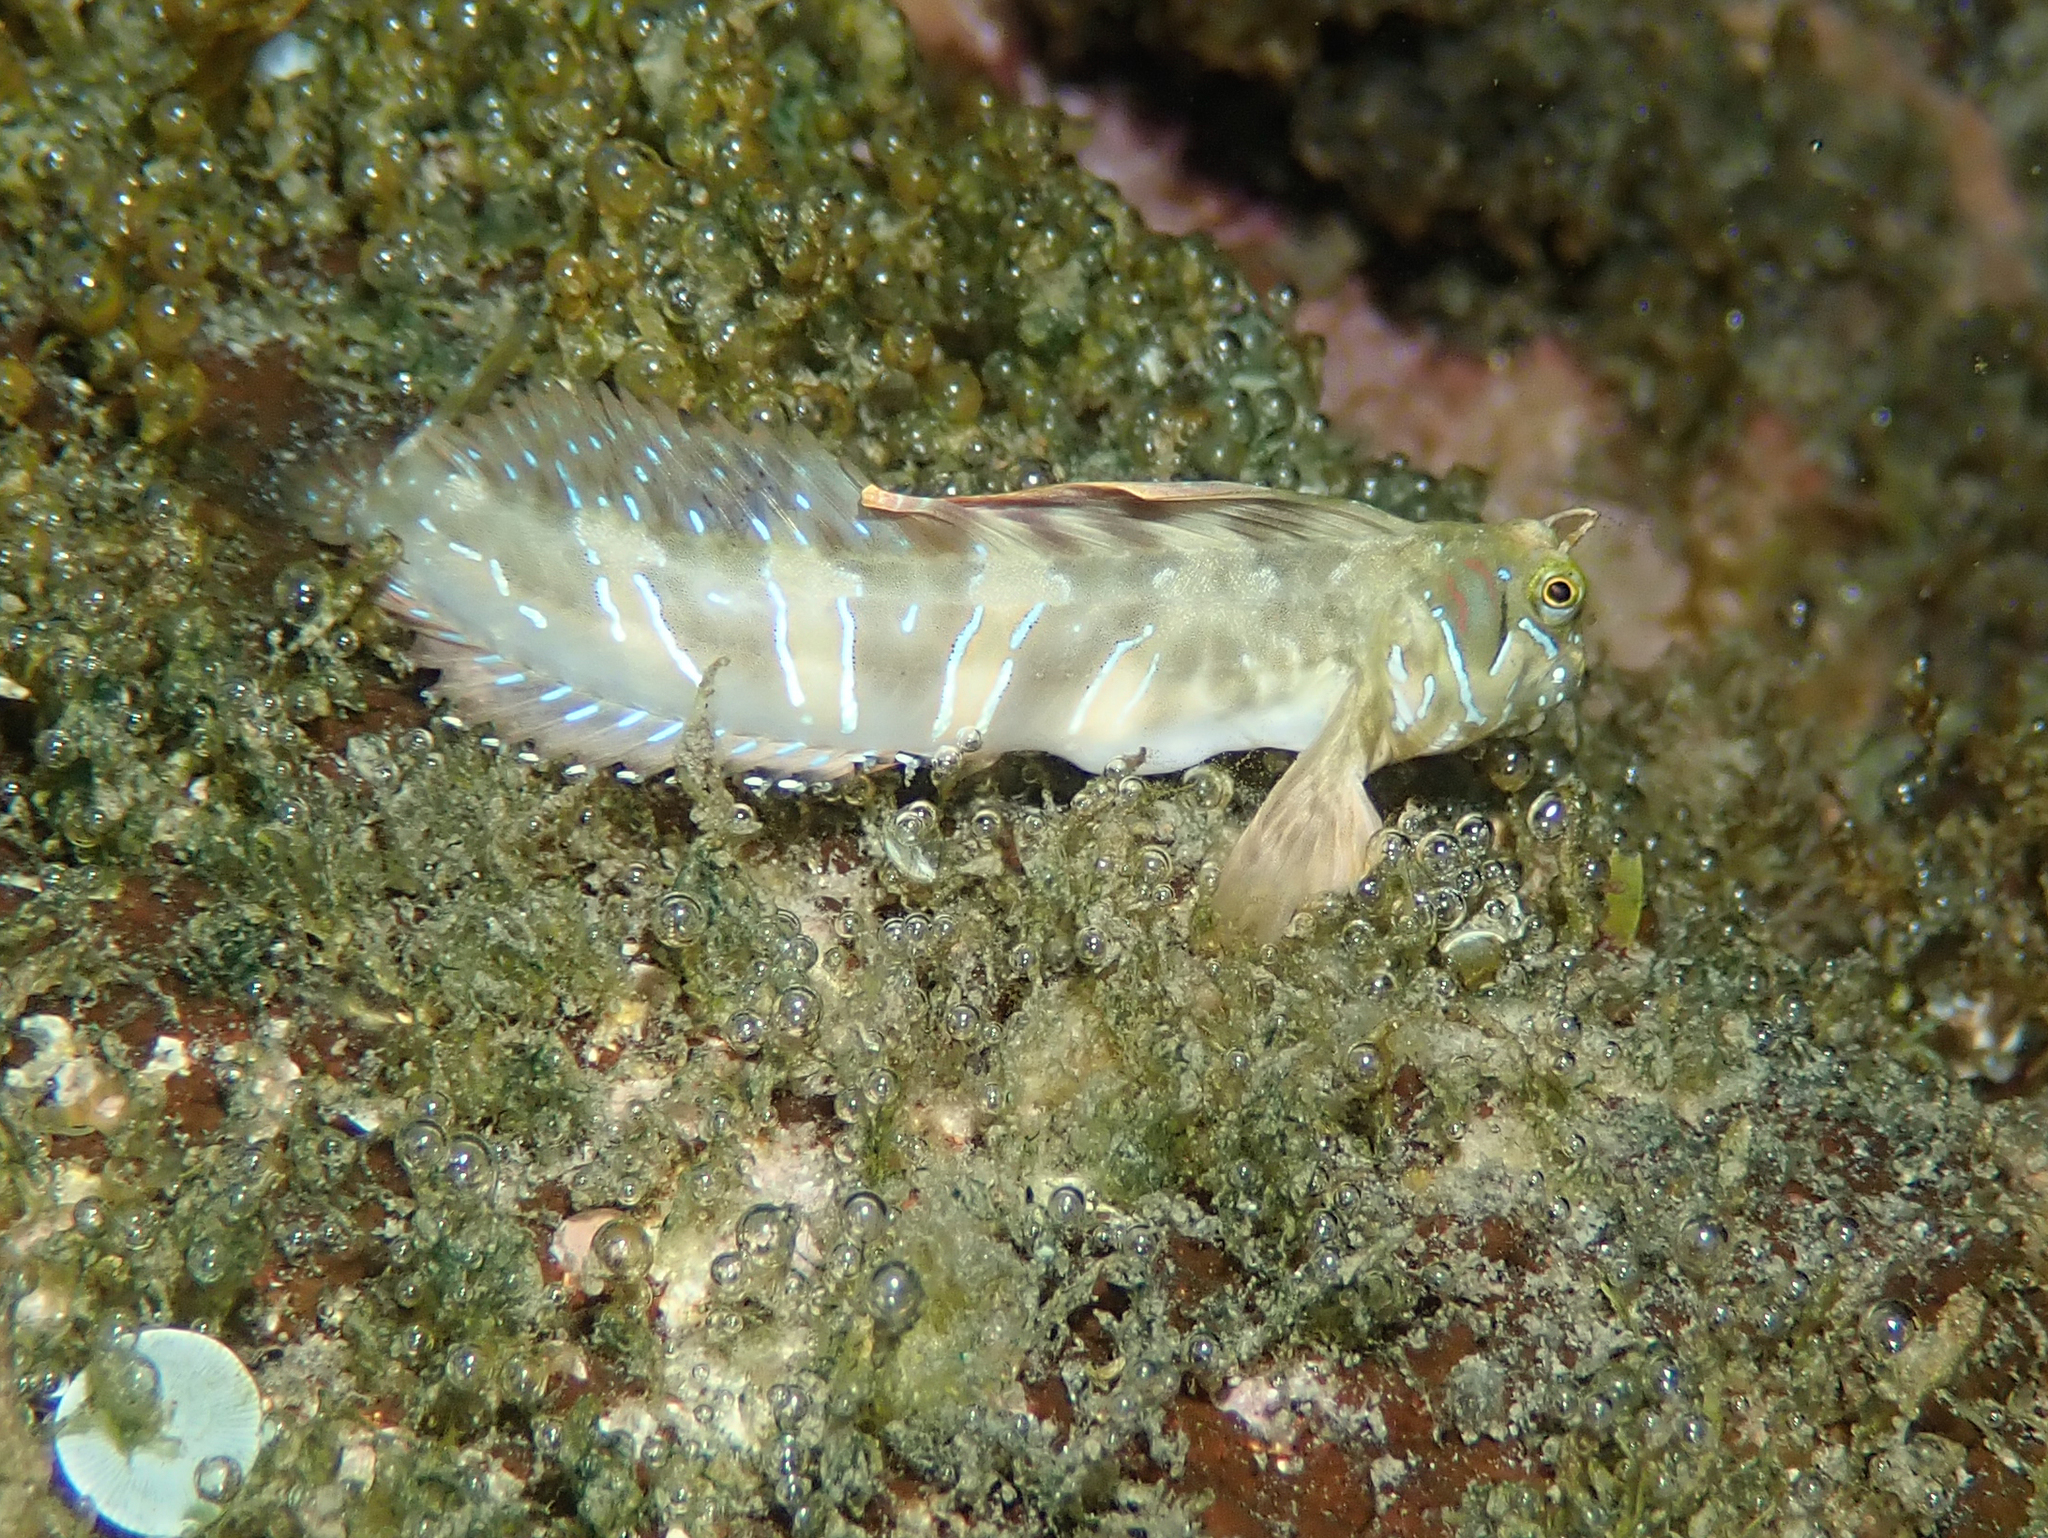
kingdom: Animalia
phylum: Chordata
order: Perciformes
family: Blenniidae
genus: Aidablennius
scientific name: Aidablennius sphynx
